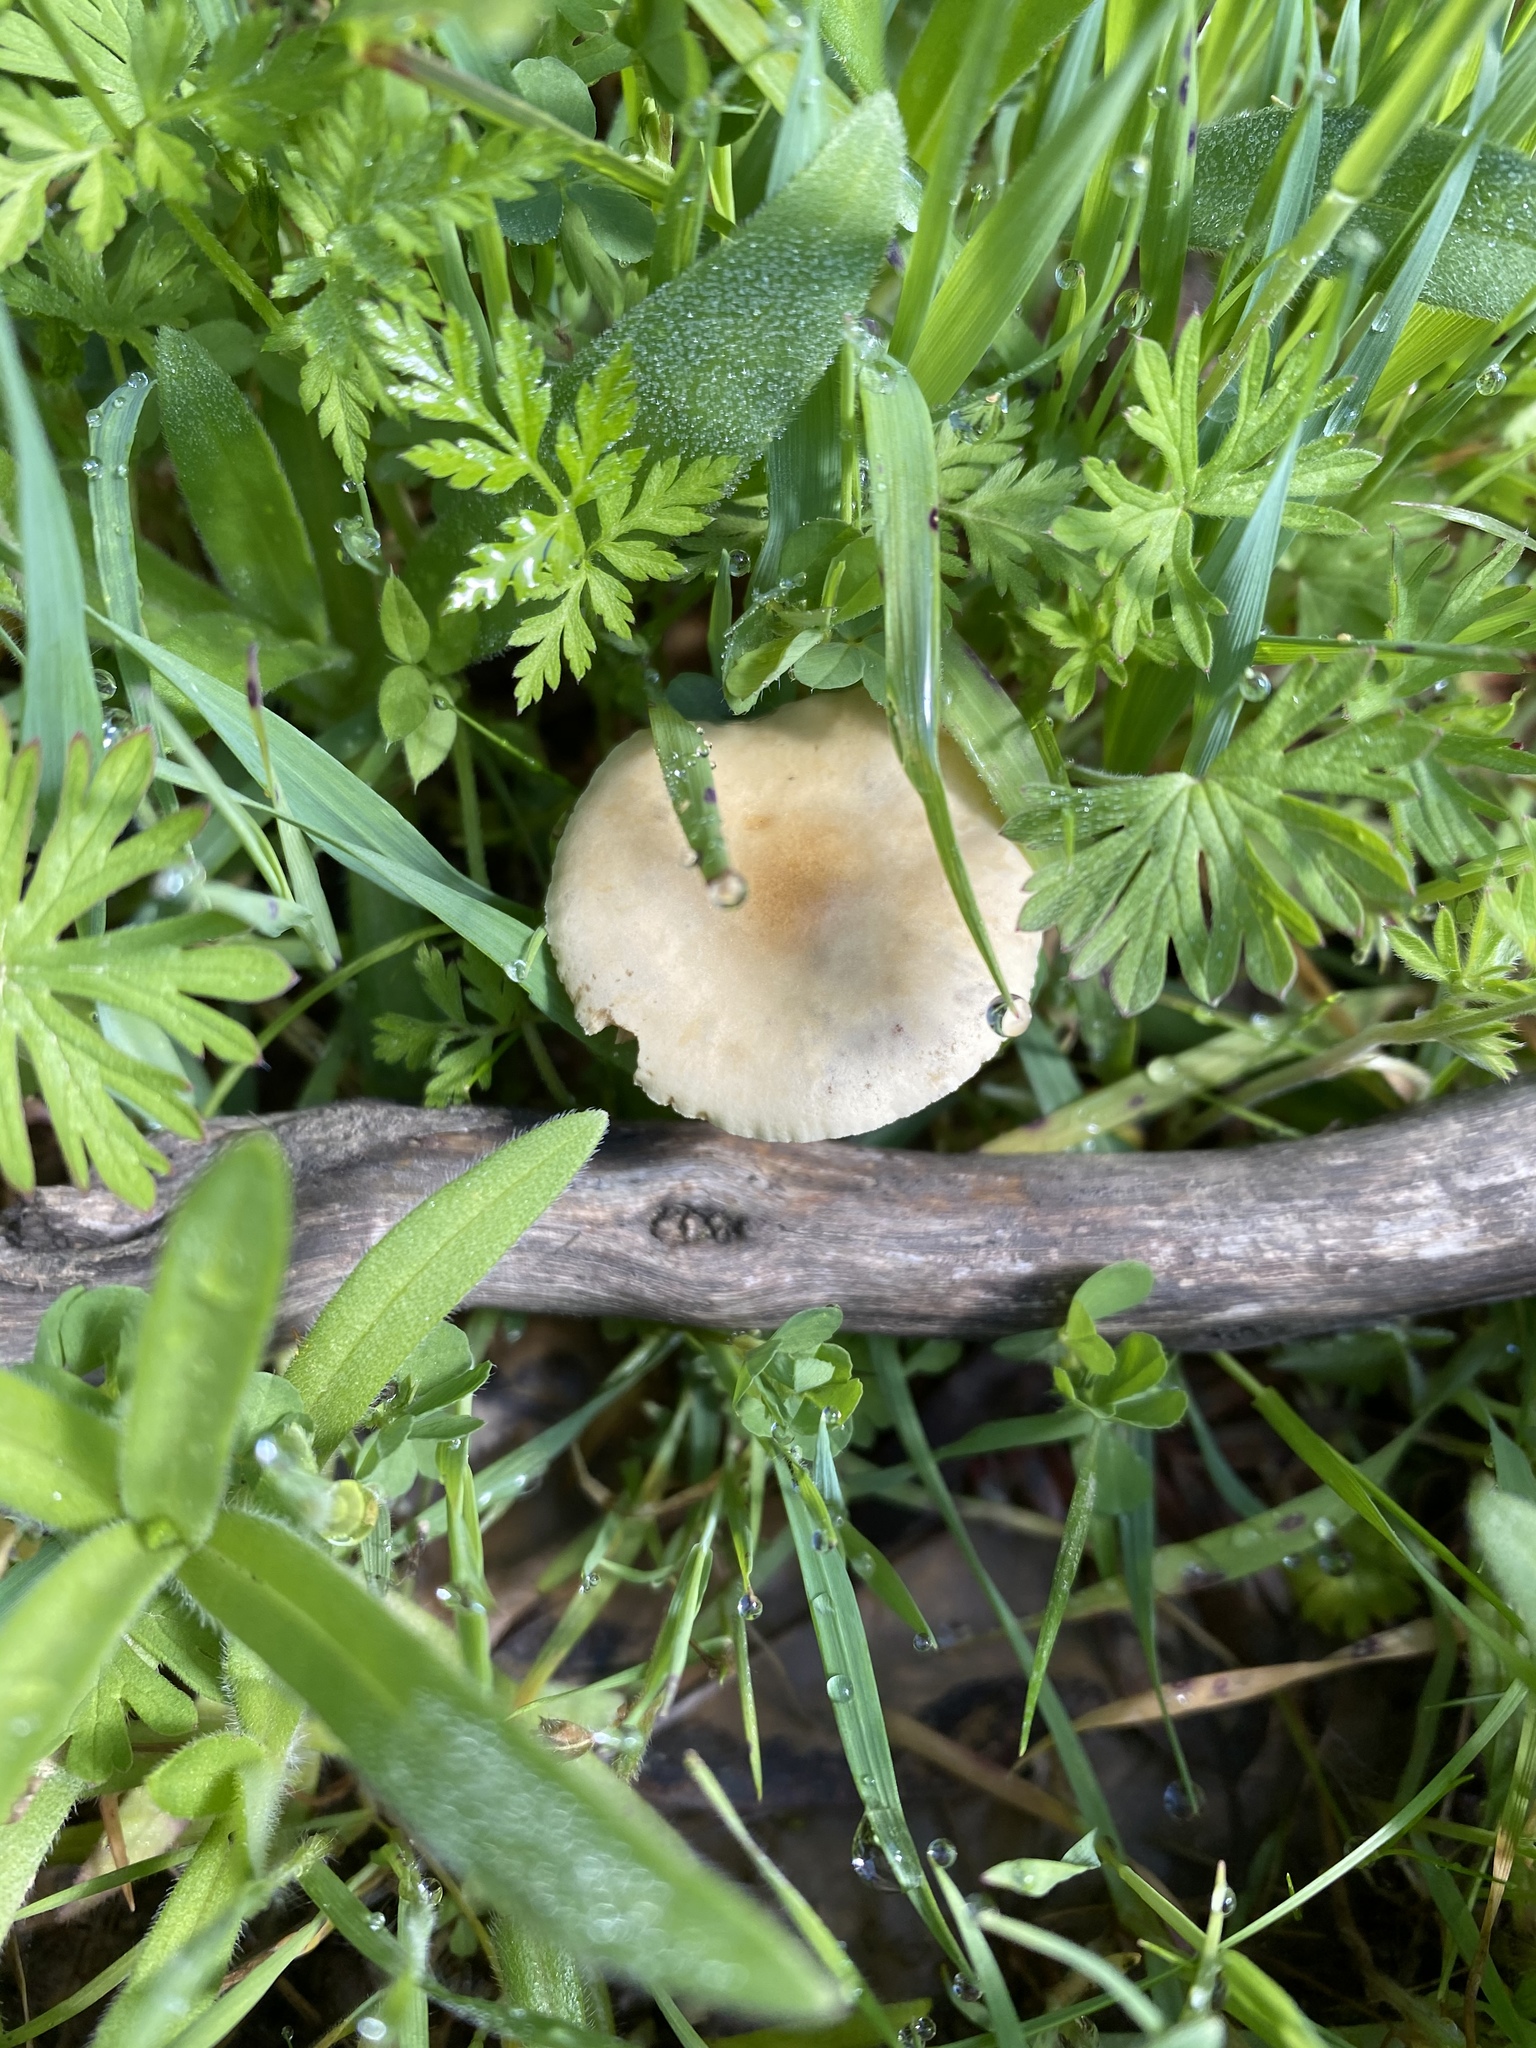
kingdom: Fungi
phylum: Basidiomycota
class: Agaricomycetes
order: Agaricales
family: Strophariaceae
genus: Agrocybe
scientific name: Agrocybe pediades
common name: Common fieldcap
